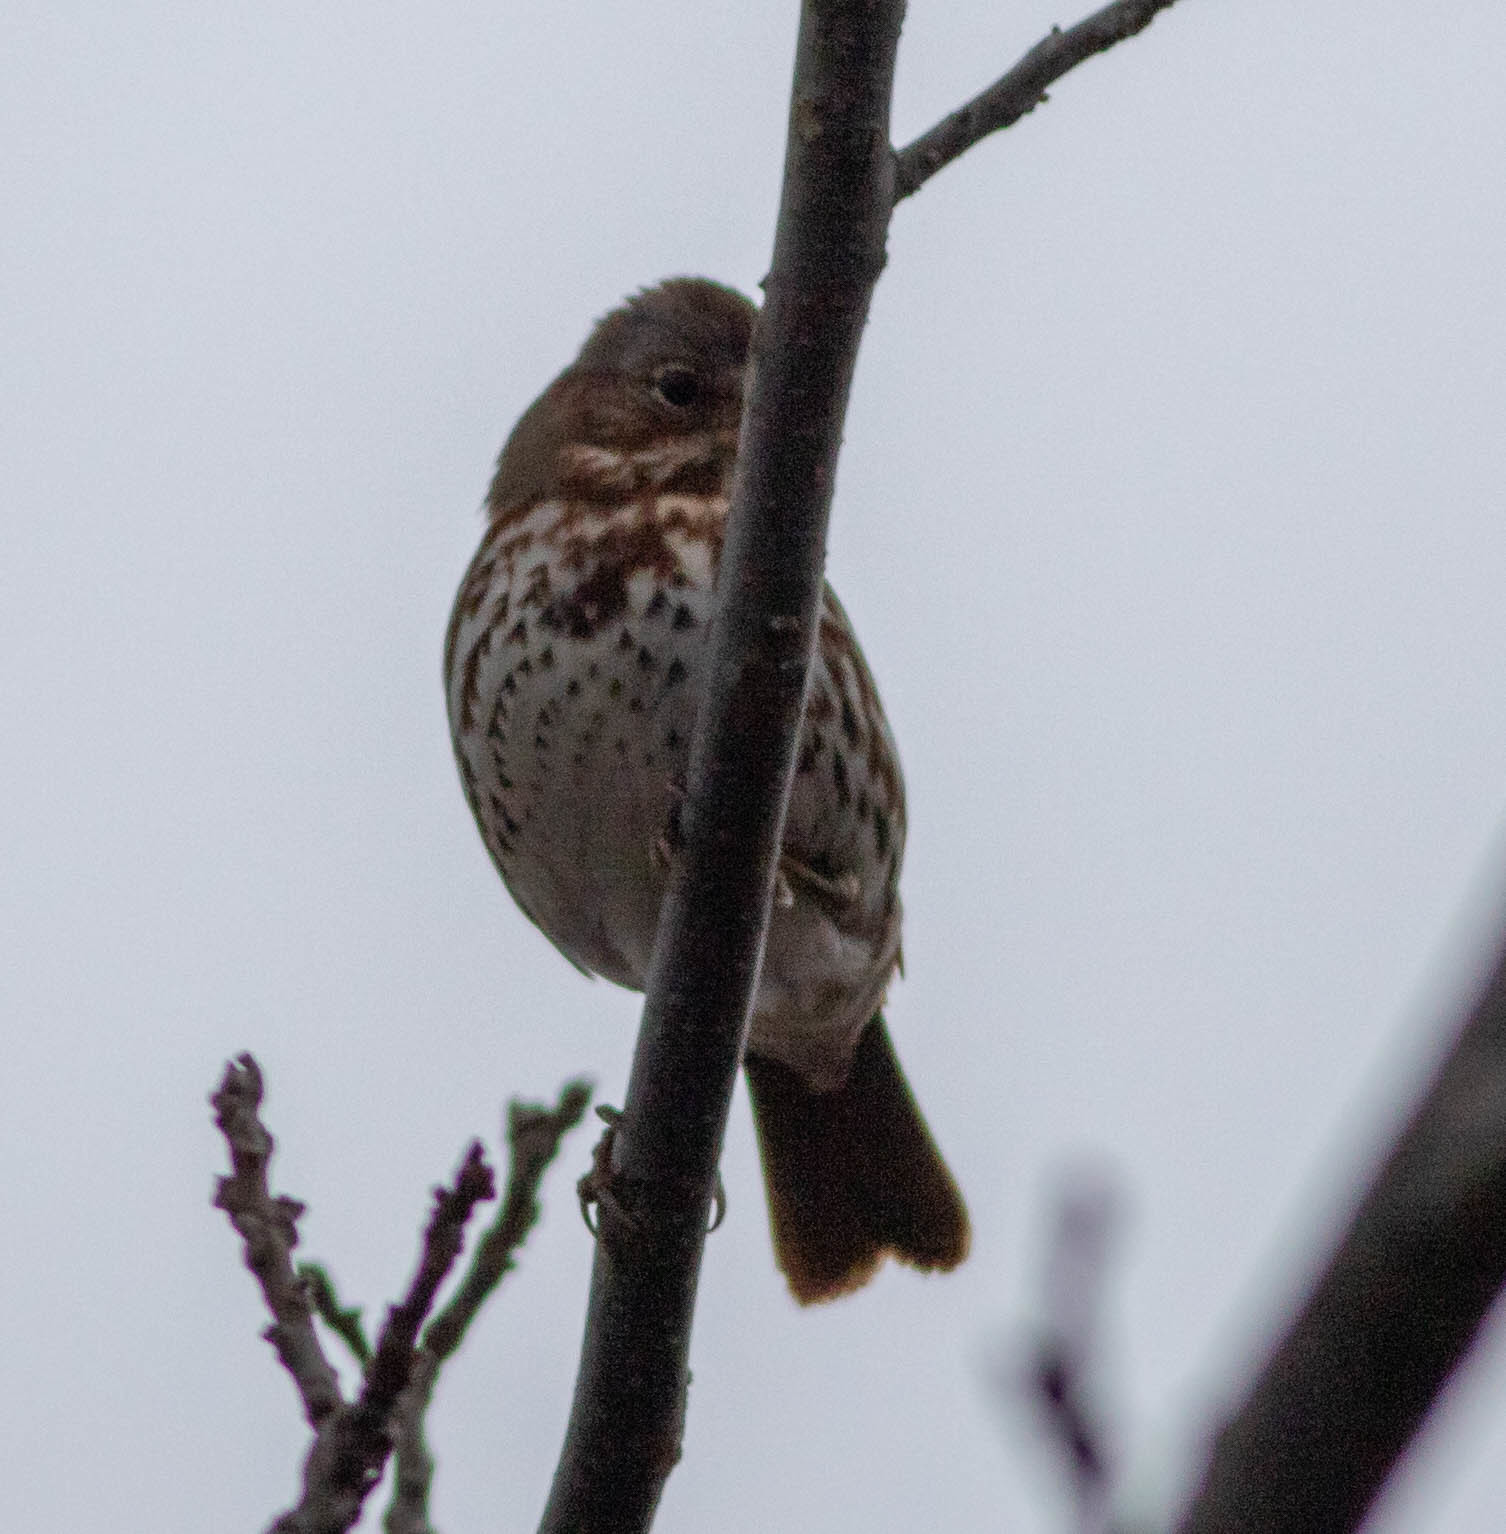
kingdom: Animalia
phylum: Chordata
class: Aves
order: Passeriformes
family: Passerellidae
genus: Passerella
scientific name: Passerella iliaca
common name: Fox sparrow
